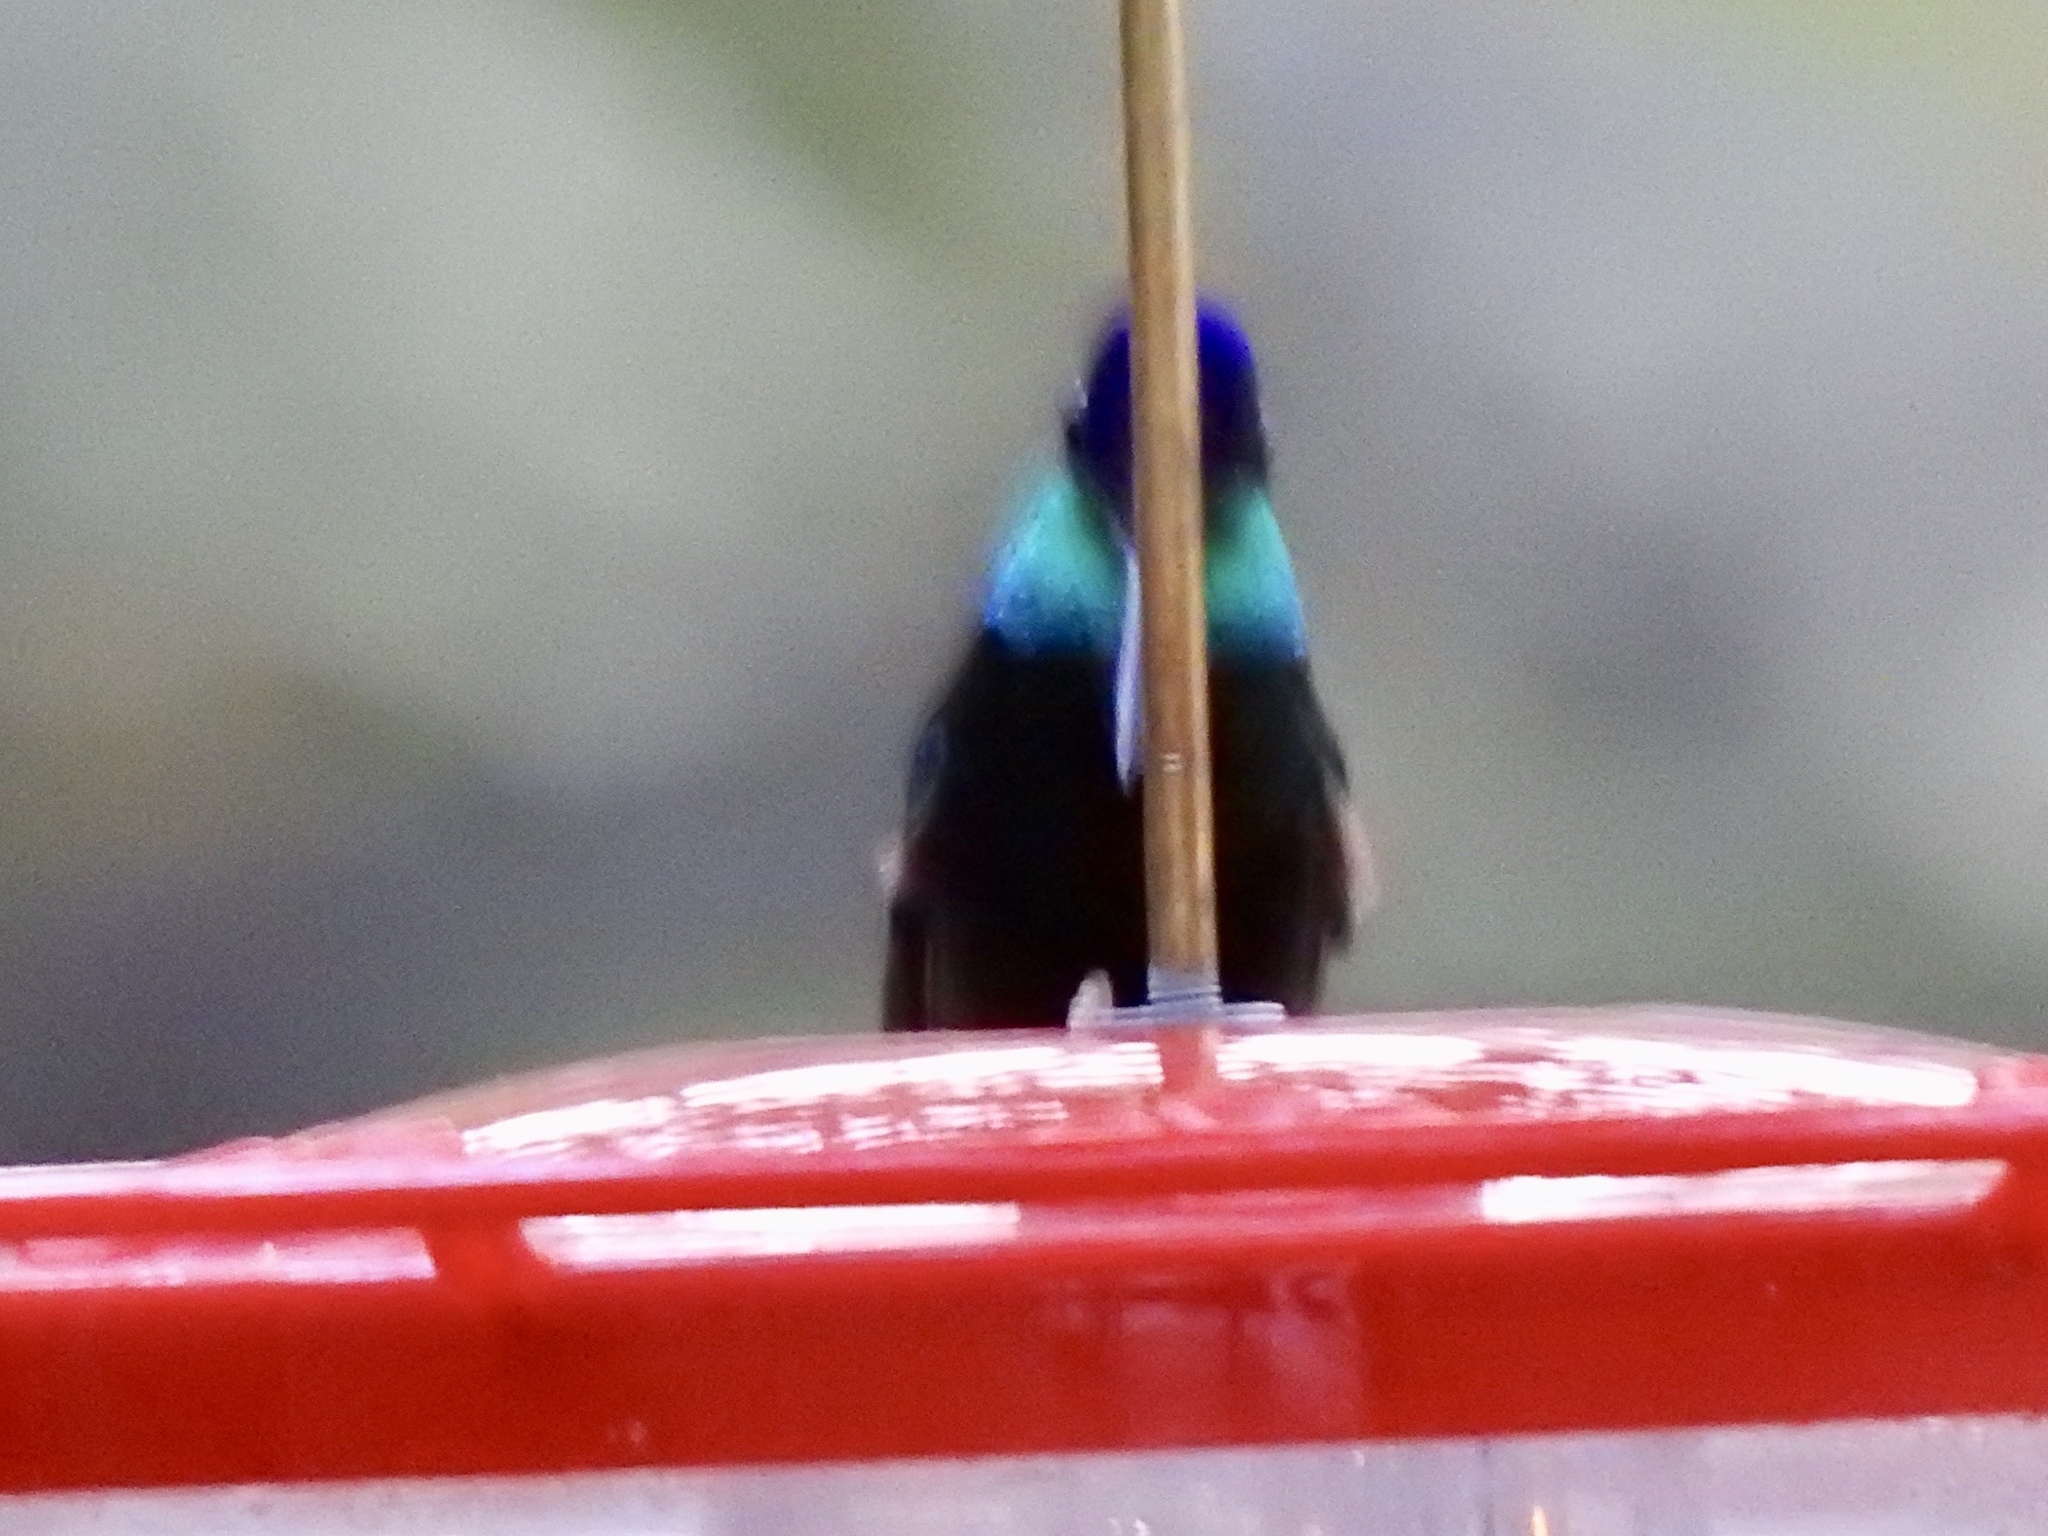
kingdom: Animalia
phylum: Chordata
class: Aves
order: Apodiformes
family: Trochilidae
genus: Eugenes
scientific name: Eugenes fulgens
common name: Magnificent hummingbird
